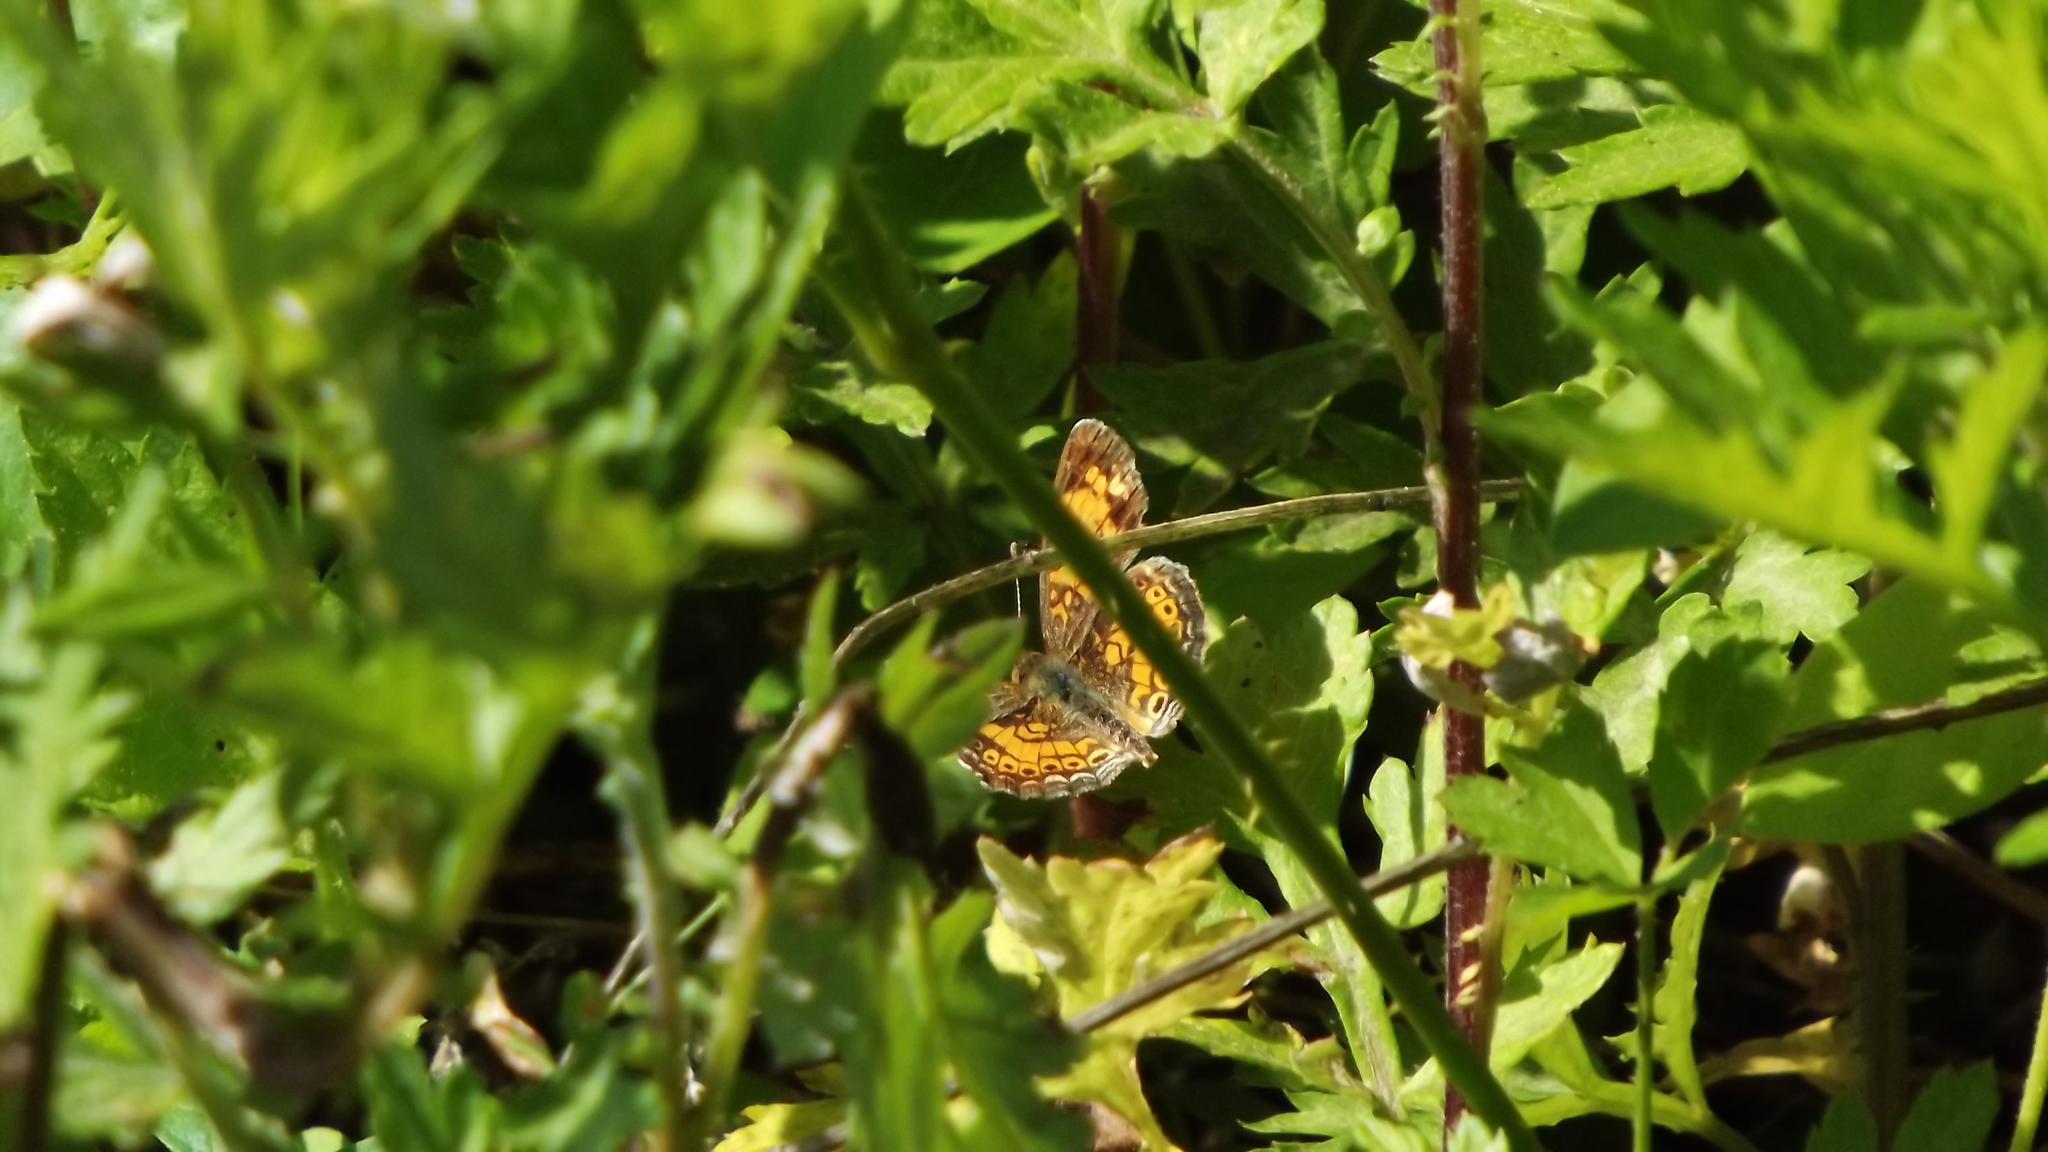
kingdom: Animalia
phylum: Arthropoda
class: Insecta
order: Lepidoptera
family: Nymphalidae
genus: Phyciodes
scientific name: Phyciodes tharos
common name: Pearl crescent
